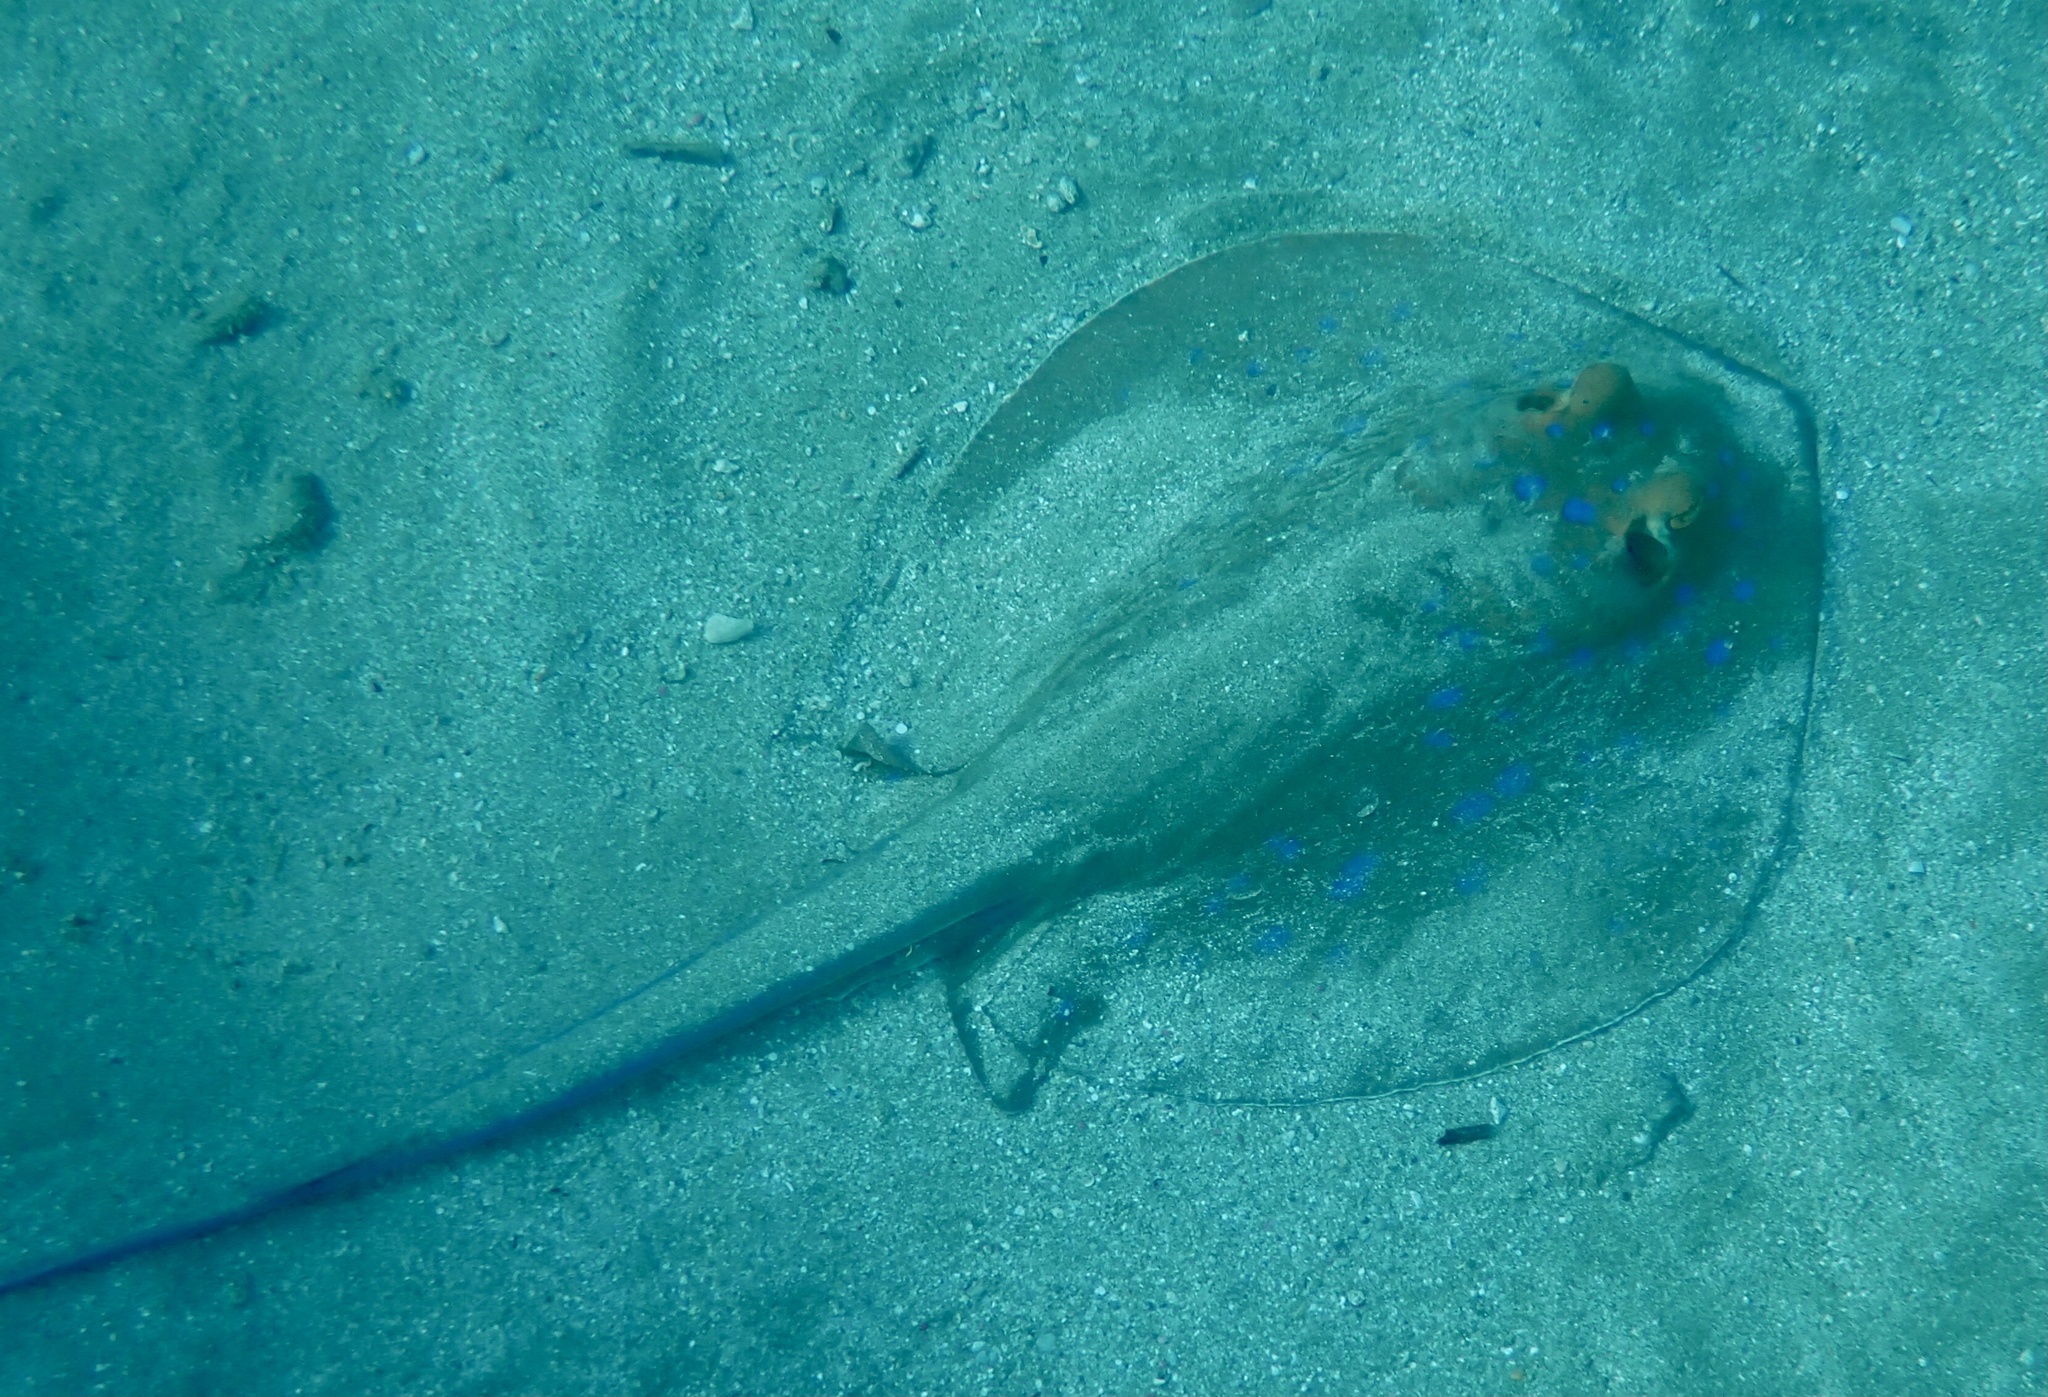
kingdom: Animalia
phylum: Chordata
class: Elasmobranchii
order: Myliobatiformes
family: Dasyatidae
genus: Taeniura
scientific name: Taeniura lymma
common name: Bluespotted ribbontail ray
